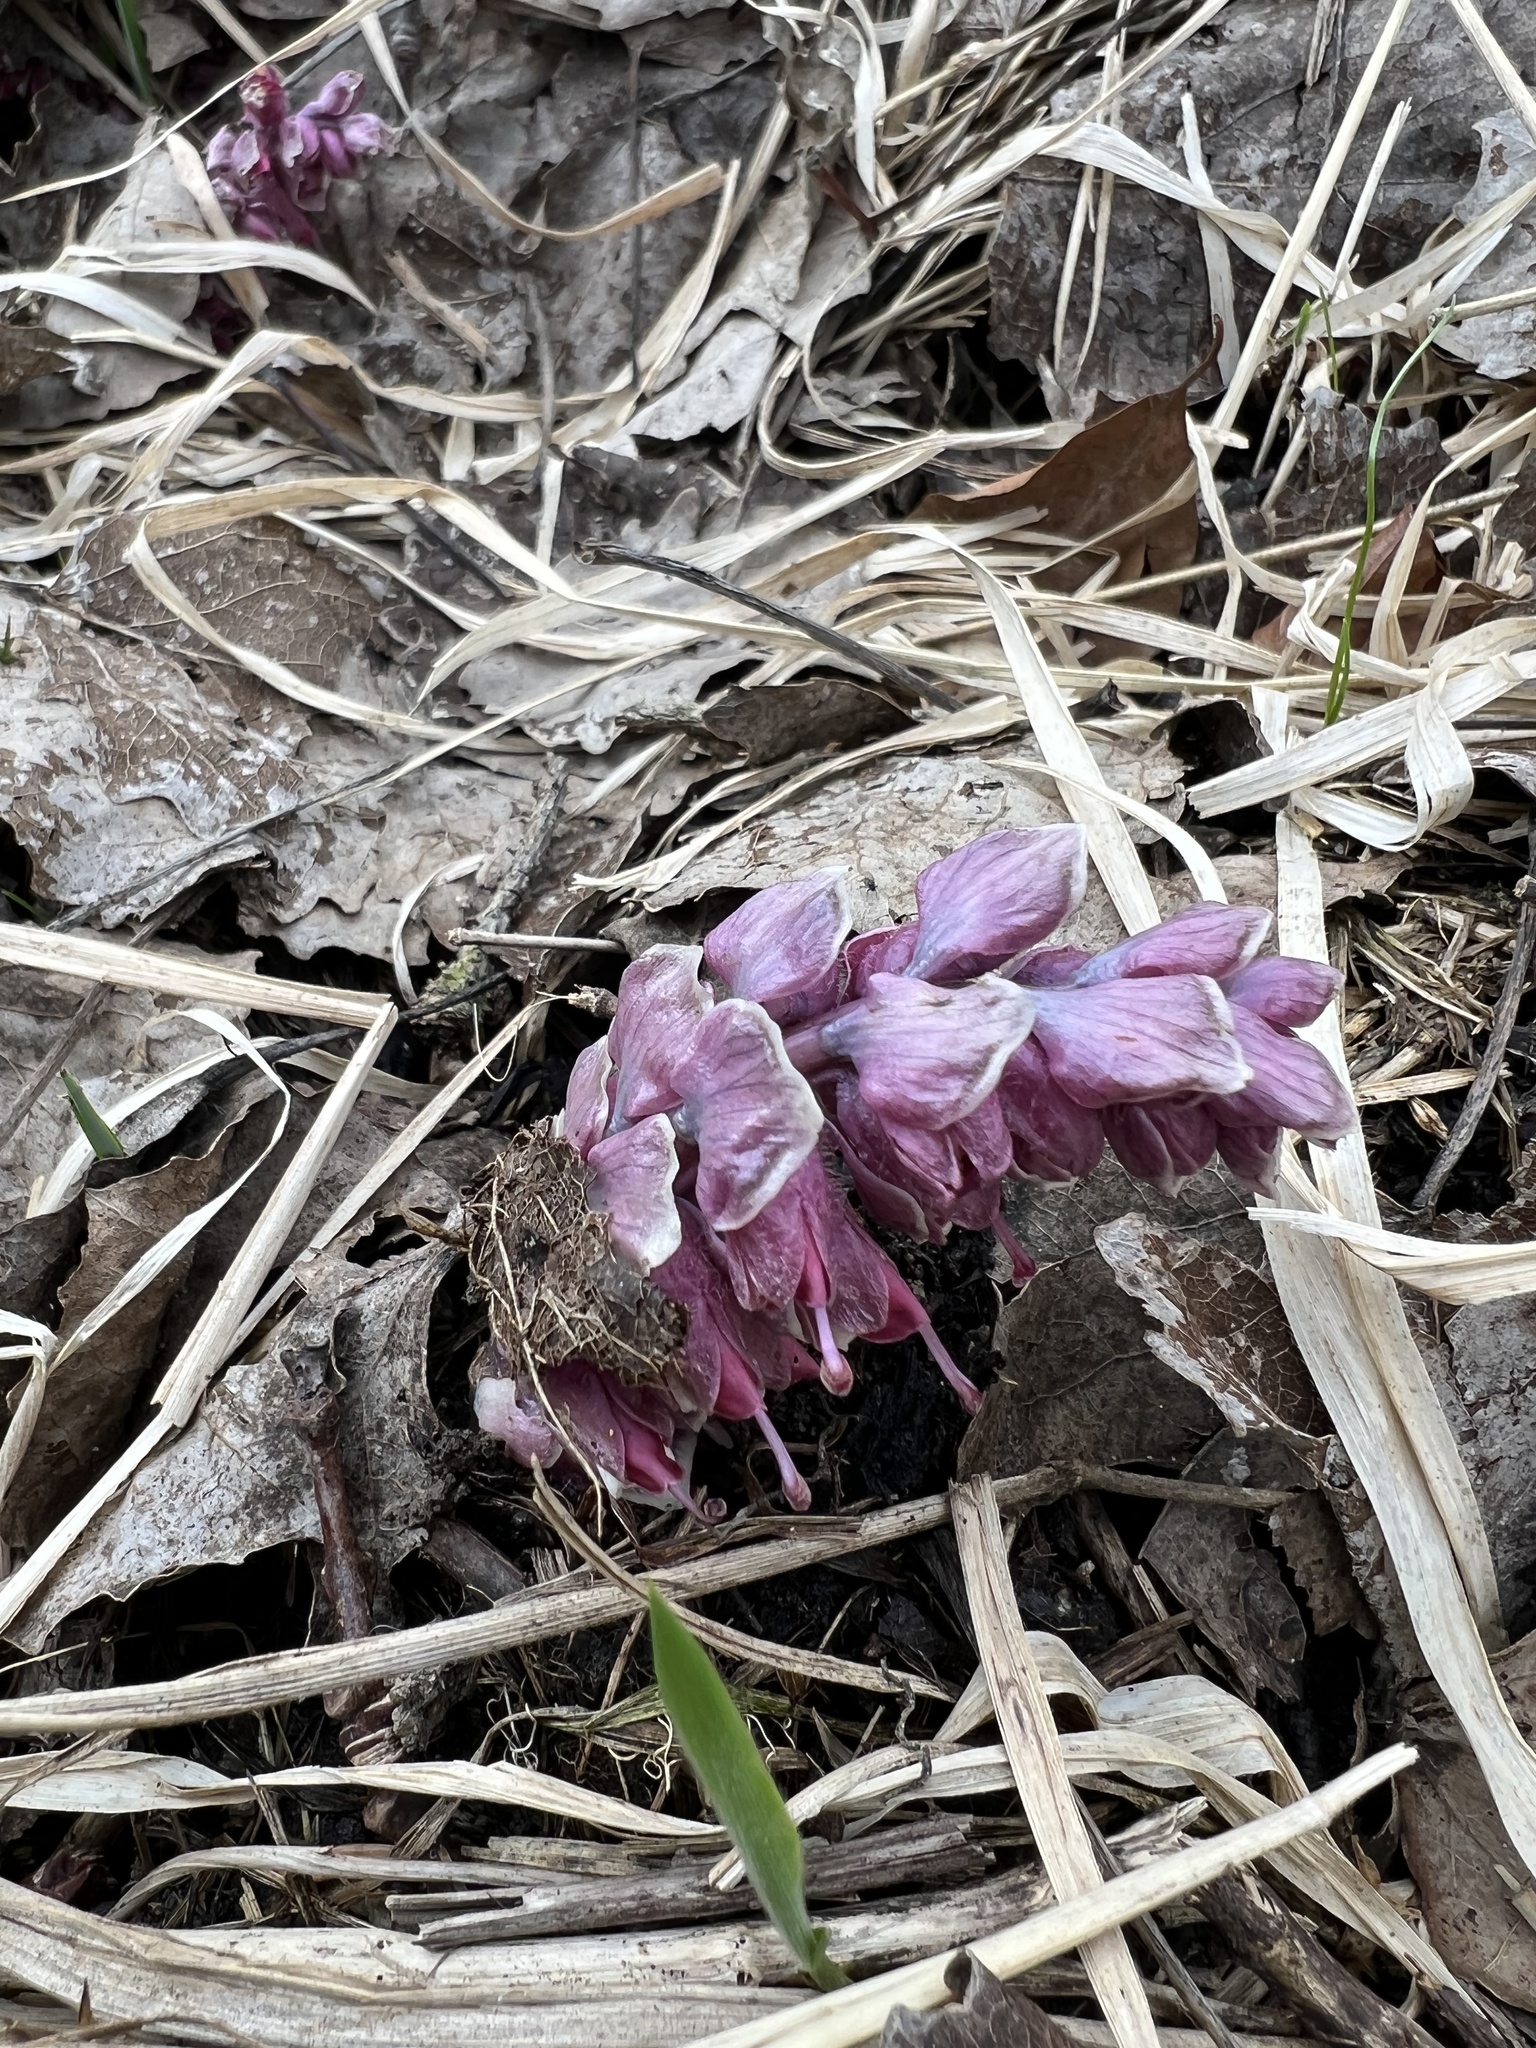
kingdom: Plantae
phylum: Tracheophyta
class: Magnoliopsida
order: Lamiales
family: Orobanchaceae
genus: Lathraea
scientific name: Lathraea squamaria
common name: Toothwort
